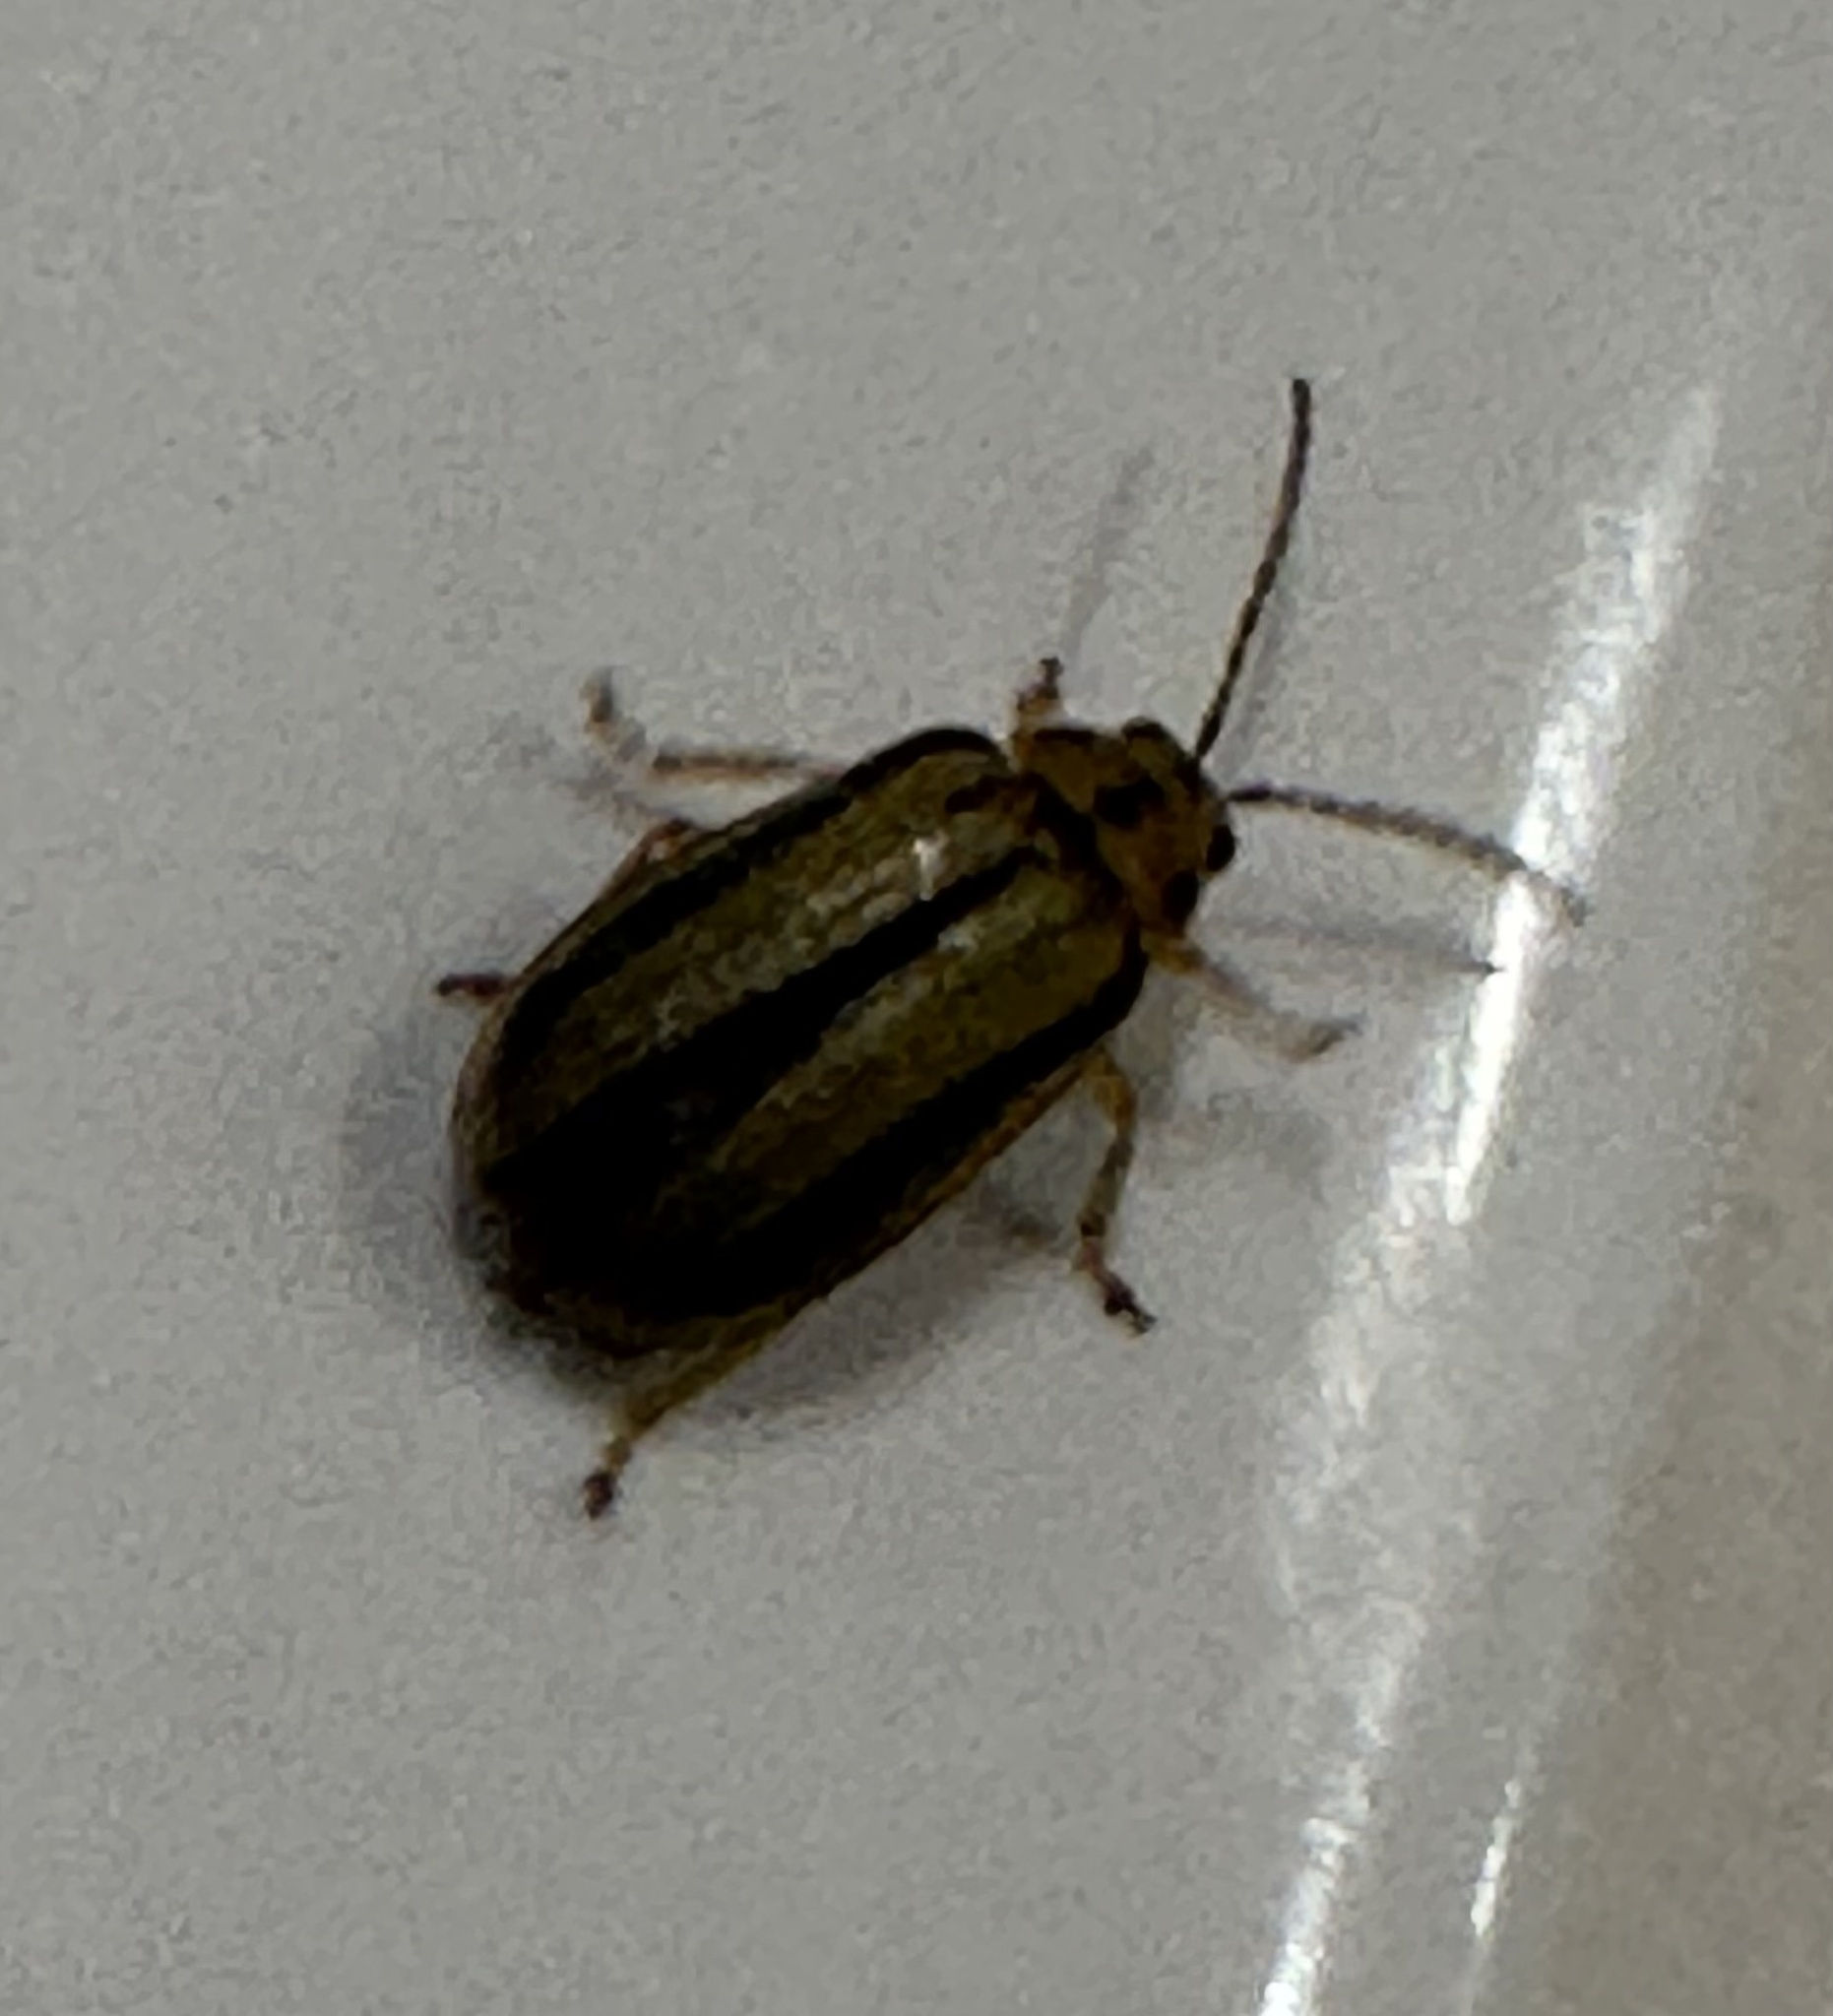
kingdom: Animalia
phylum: Arthropoda
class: Insecta
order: Coleoptera
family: Chrysomelidae
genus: Xanthogaleruca
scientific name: Xanthogaleruca luteola
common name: Elm leaf beetle
